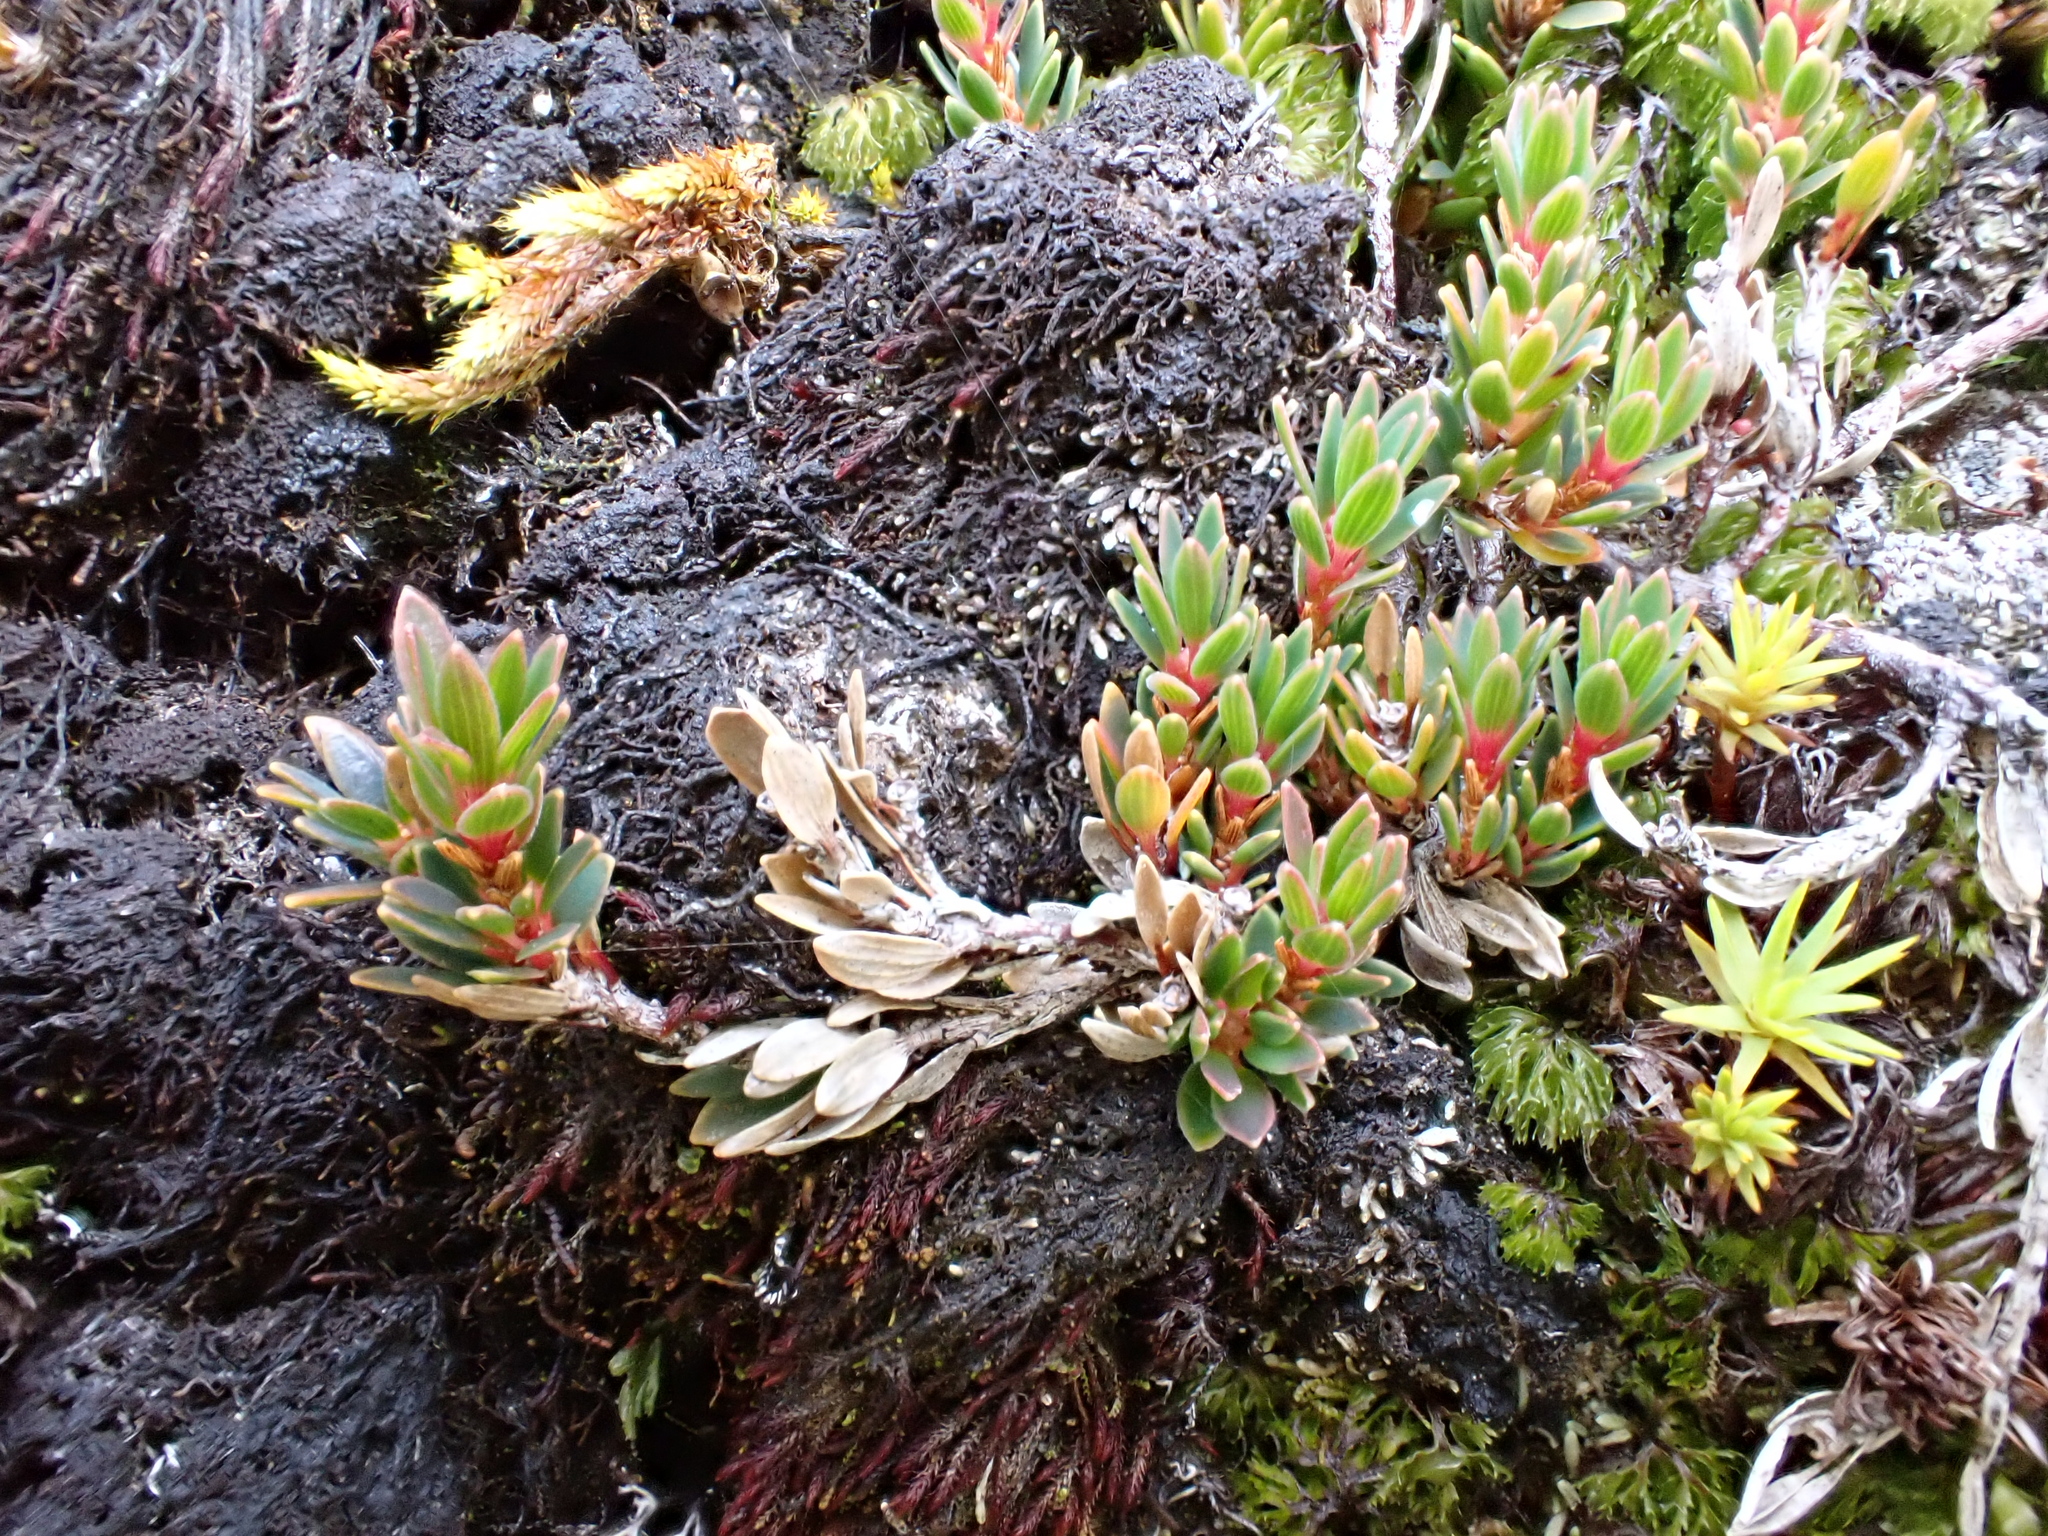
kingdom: Plantae
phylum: Tracheophyta
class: Magnoliopsida
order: Ericales
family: Ericaceae
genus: Pentachondra
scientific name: Pentachondra pumila
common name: Carpet-heath
